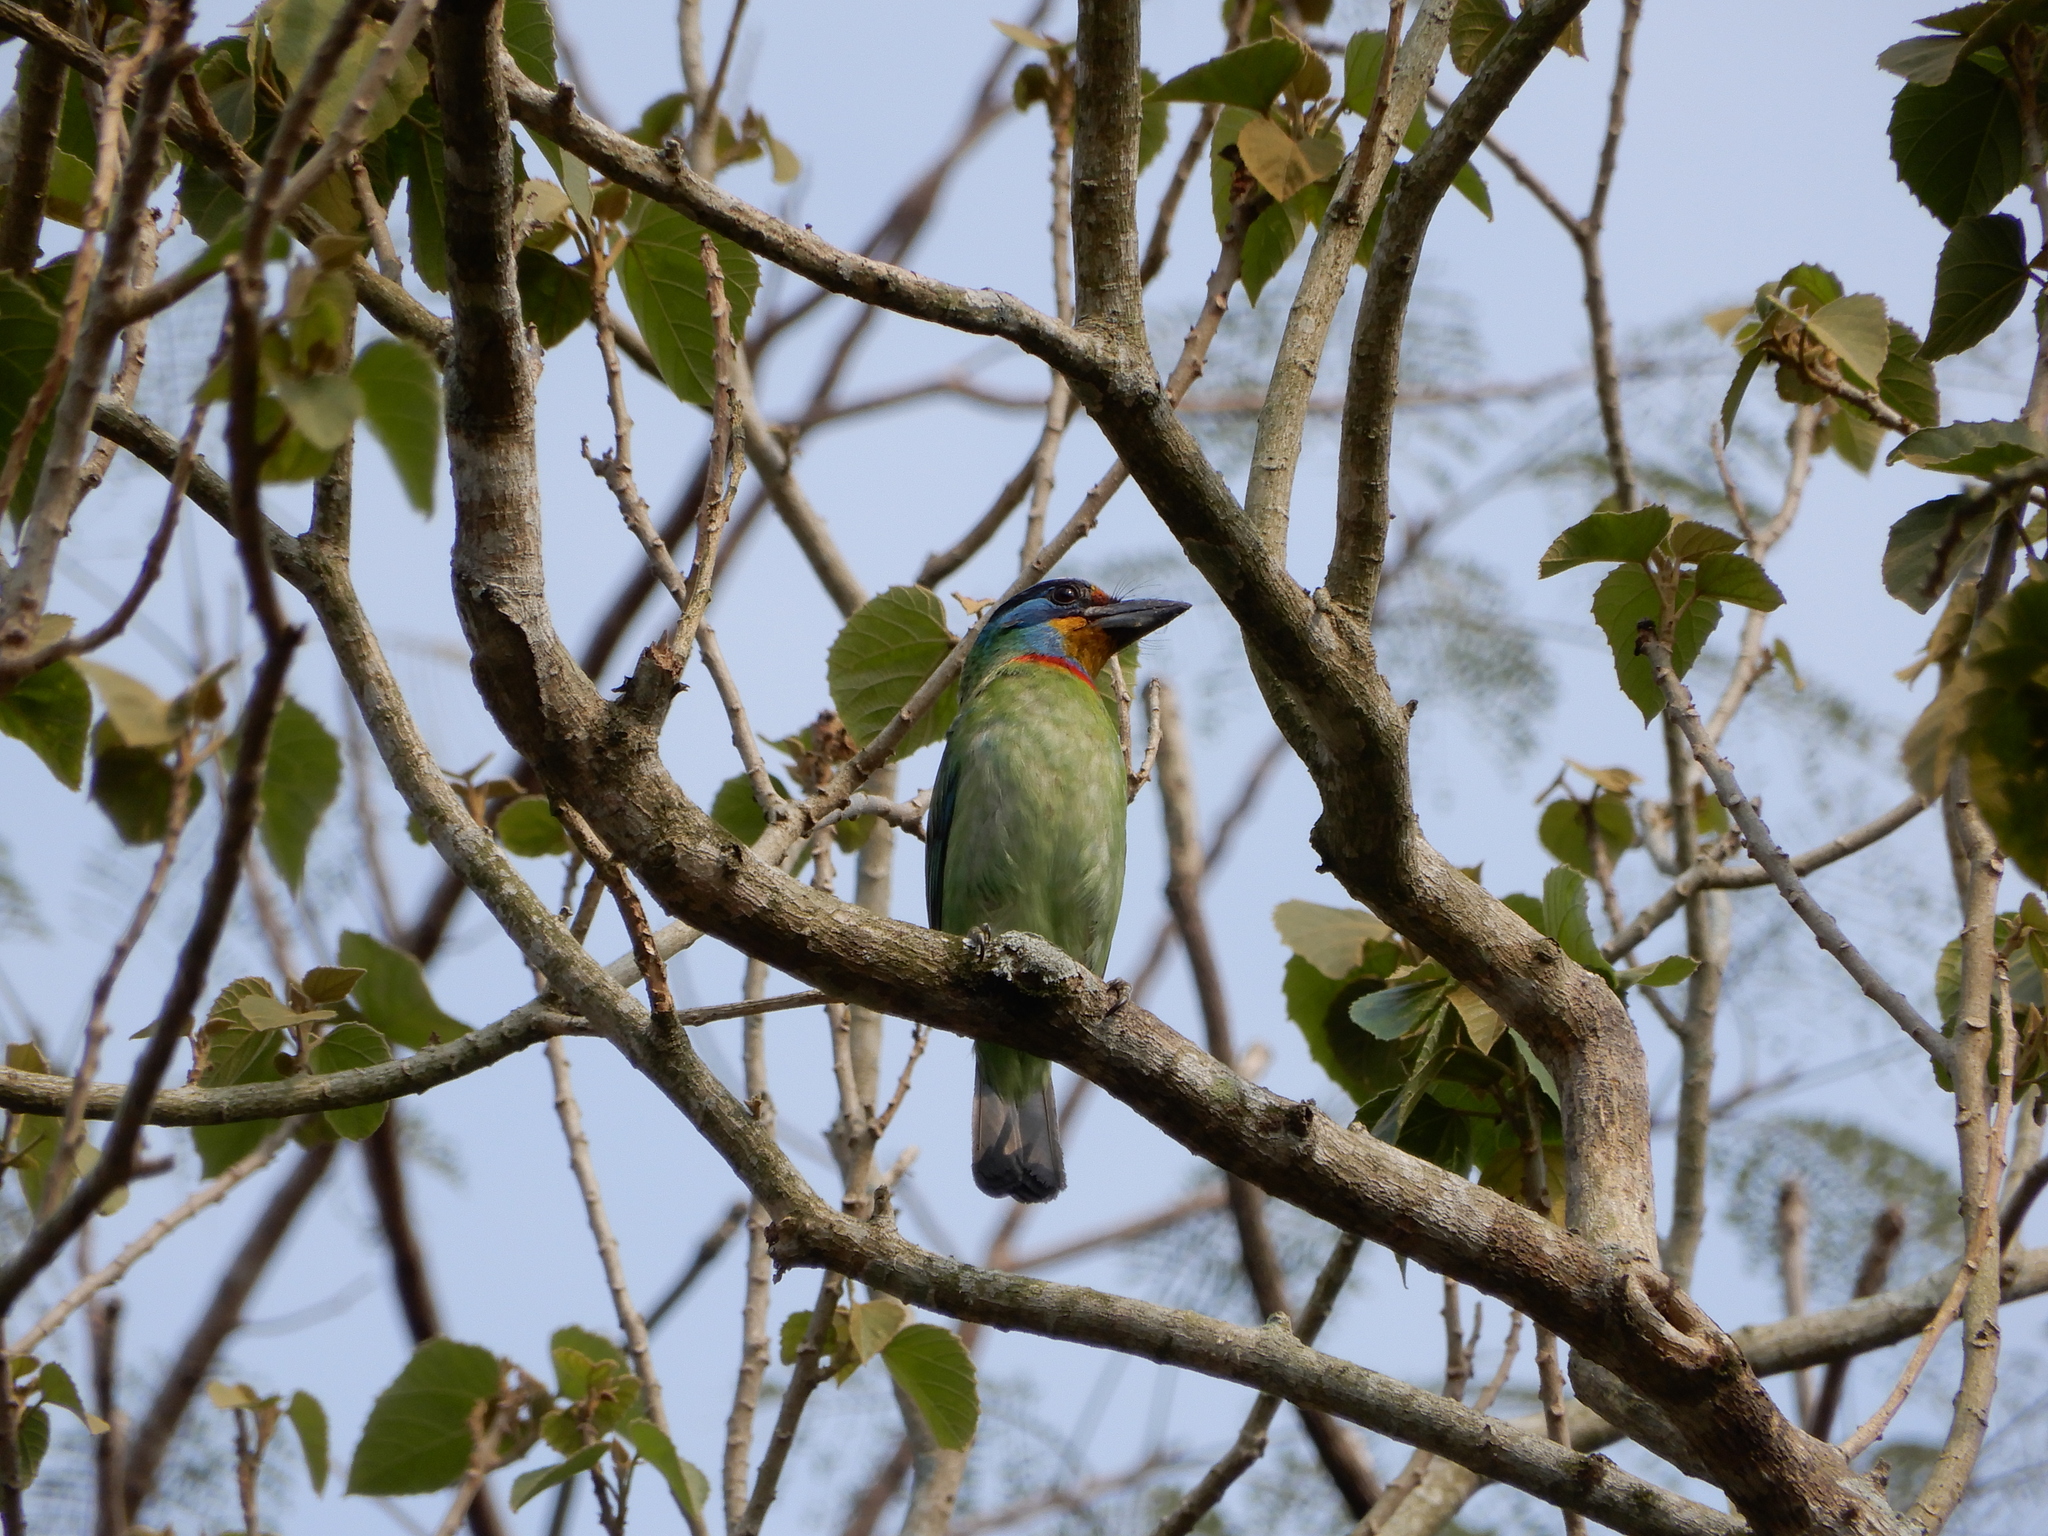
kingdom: Animalia
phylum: Chordata
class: Aves
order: Piciformes
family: Megalaimidae
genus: Psilopogon
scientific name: Psilopogon nuchalis
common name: Taiwan barbet
